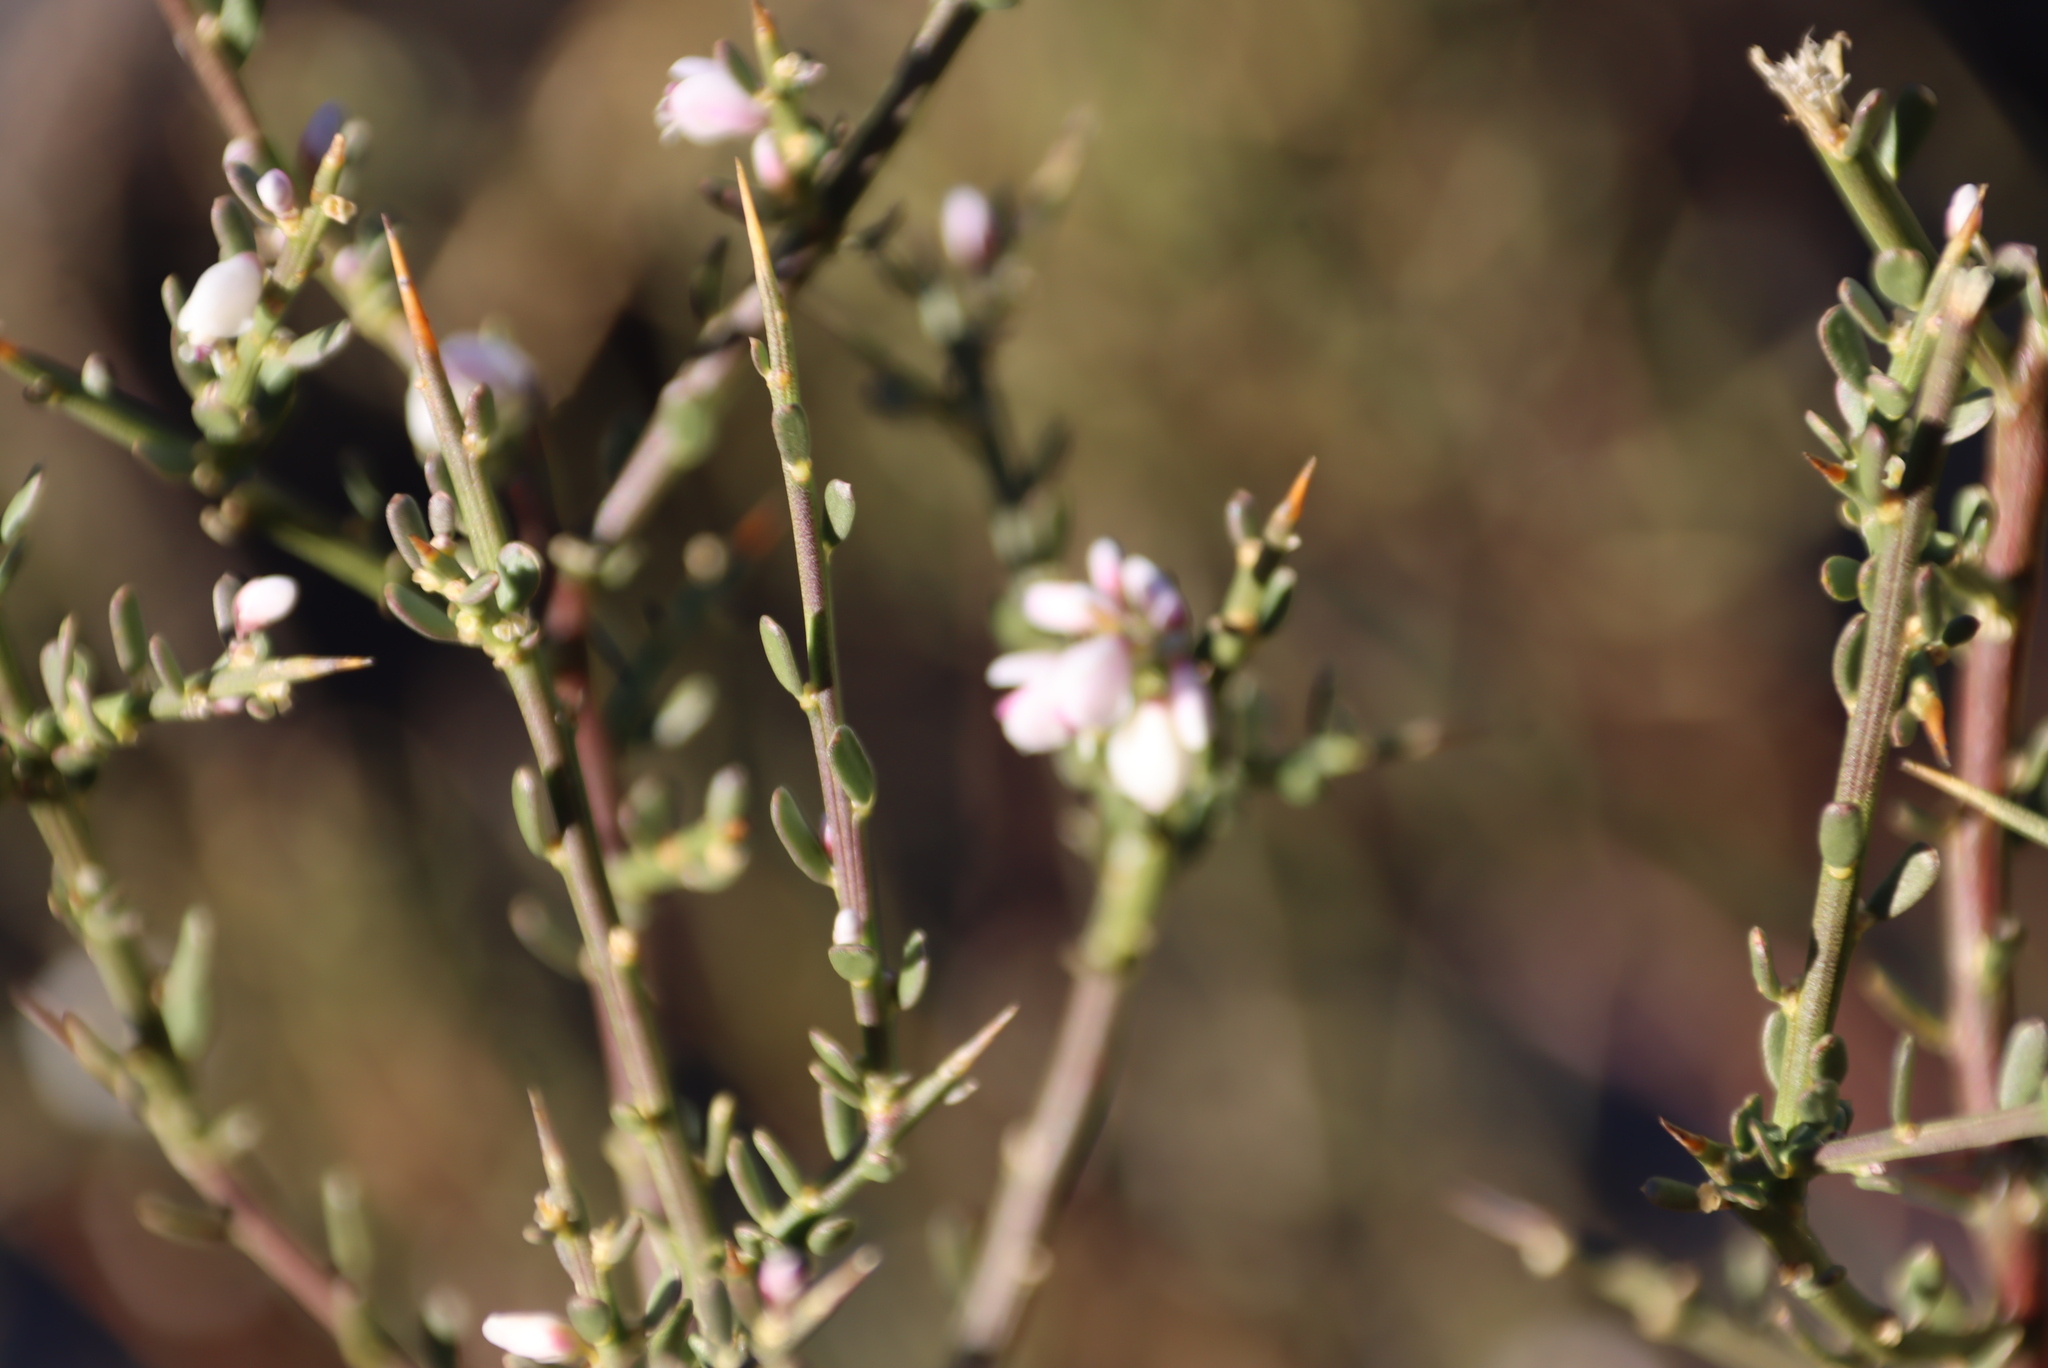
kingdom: Plantae
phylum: Tracheophyta
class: Magnoliopsida
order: Fabales
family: Polygalaceae
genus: Muraltia
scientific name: Muraltia spinosa
